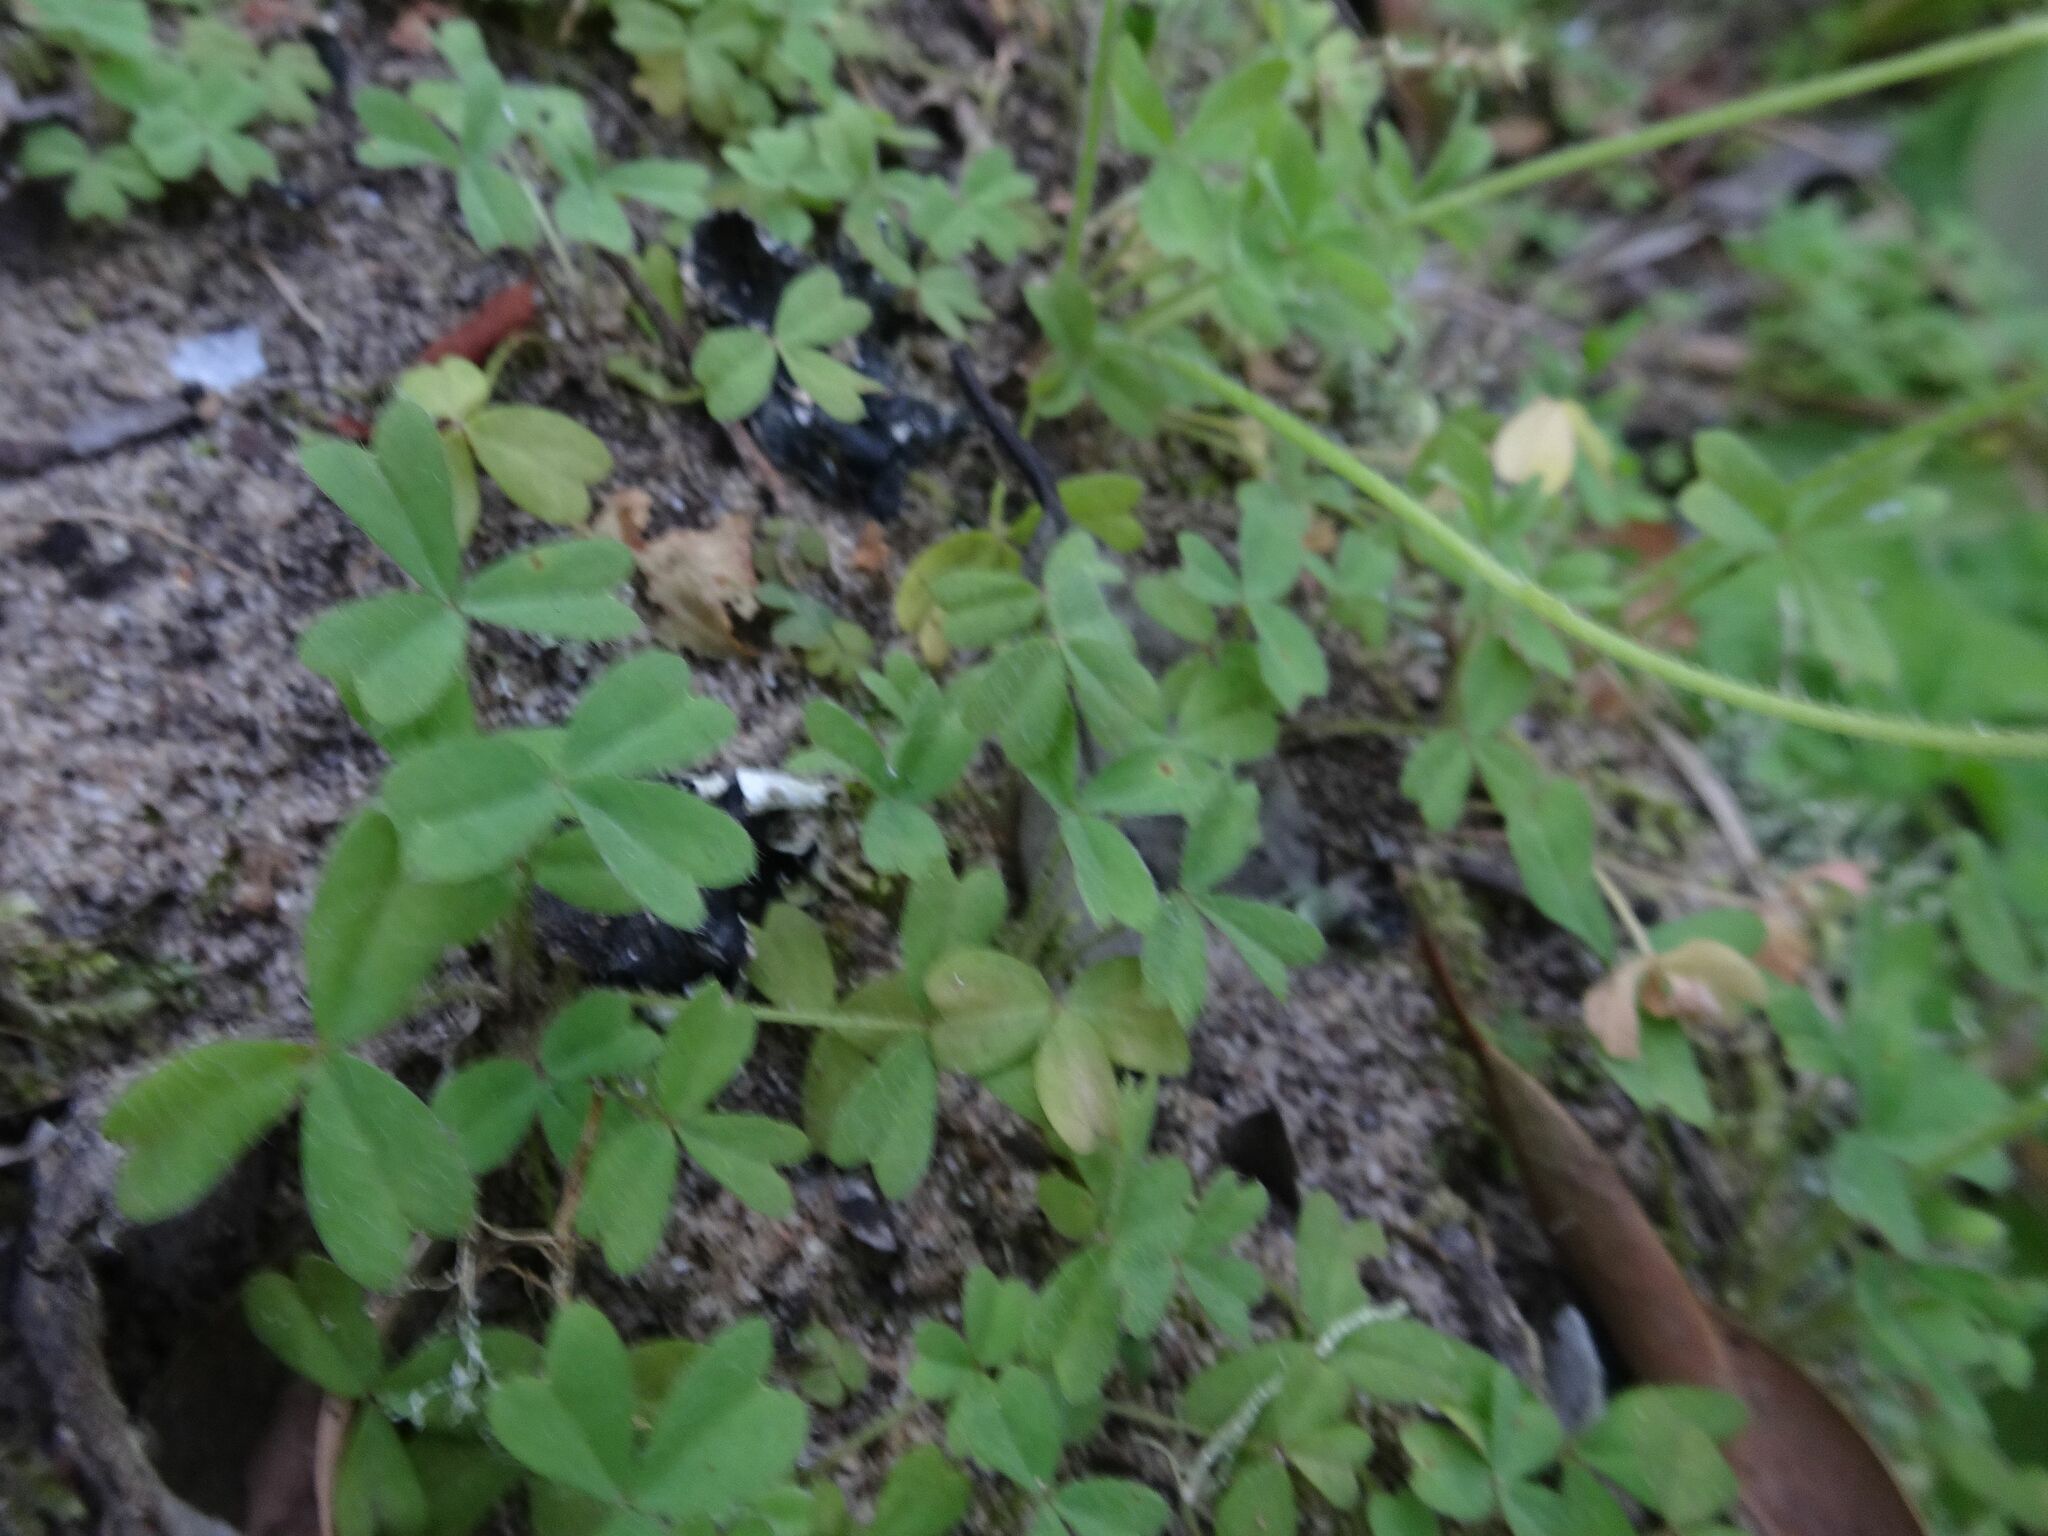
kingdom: Plantae
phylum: Tracheophyta
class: Magnoliopsida
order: Oxalidales
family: Oxalidaceae
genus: Oxalis
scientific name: Oxalis obtusa
